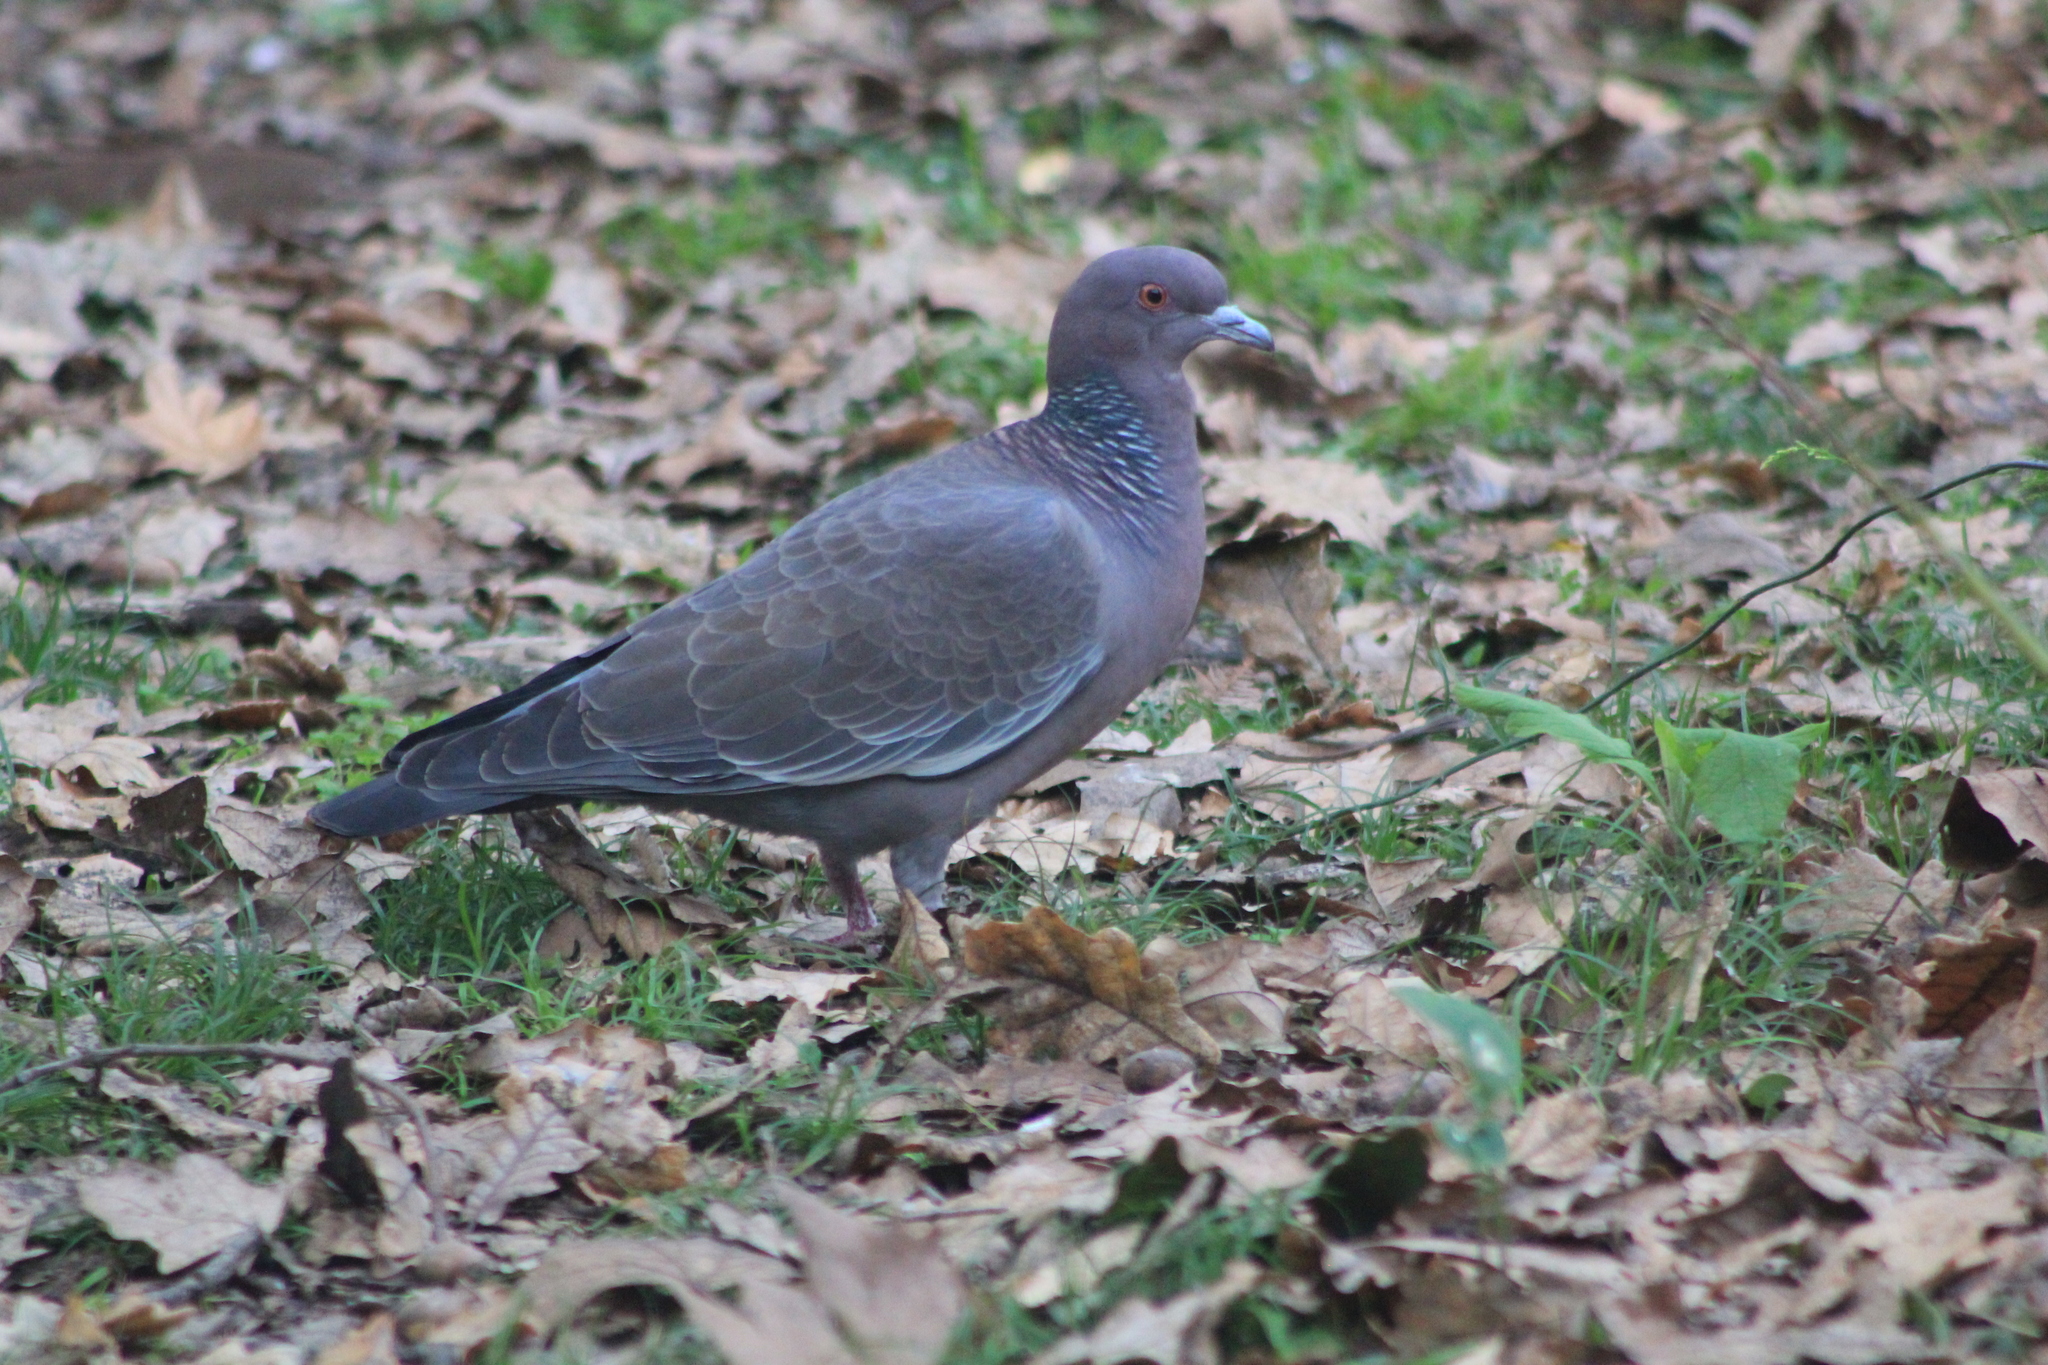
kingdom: Animalia
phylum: Chordata
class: Aves
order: Columbiformes
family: Columbidae
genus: Patagioenas
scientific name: Patagioenas picazuro
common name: Picazuro pigeon
